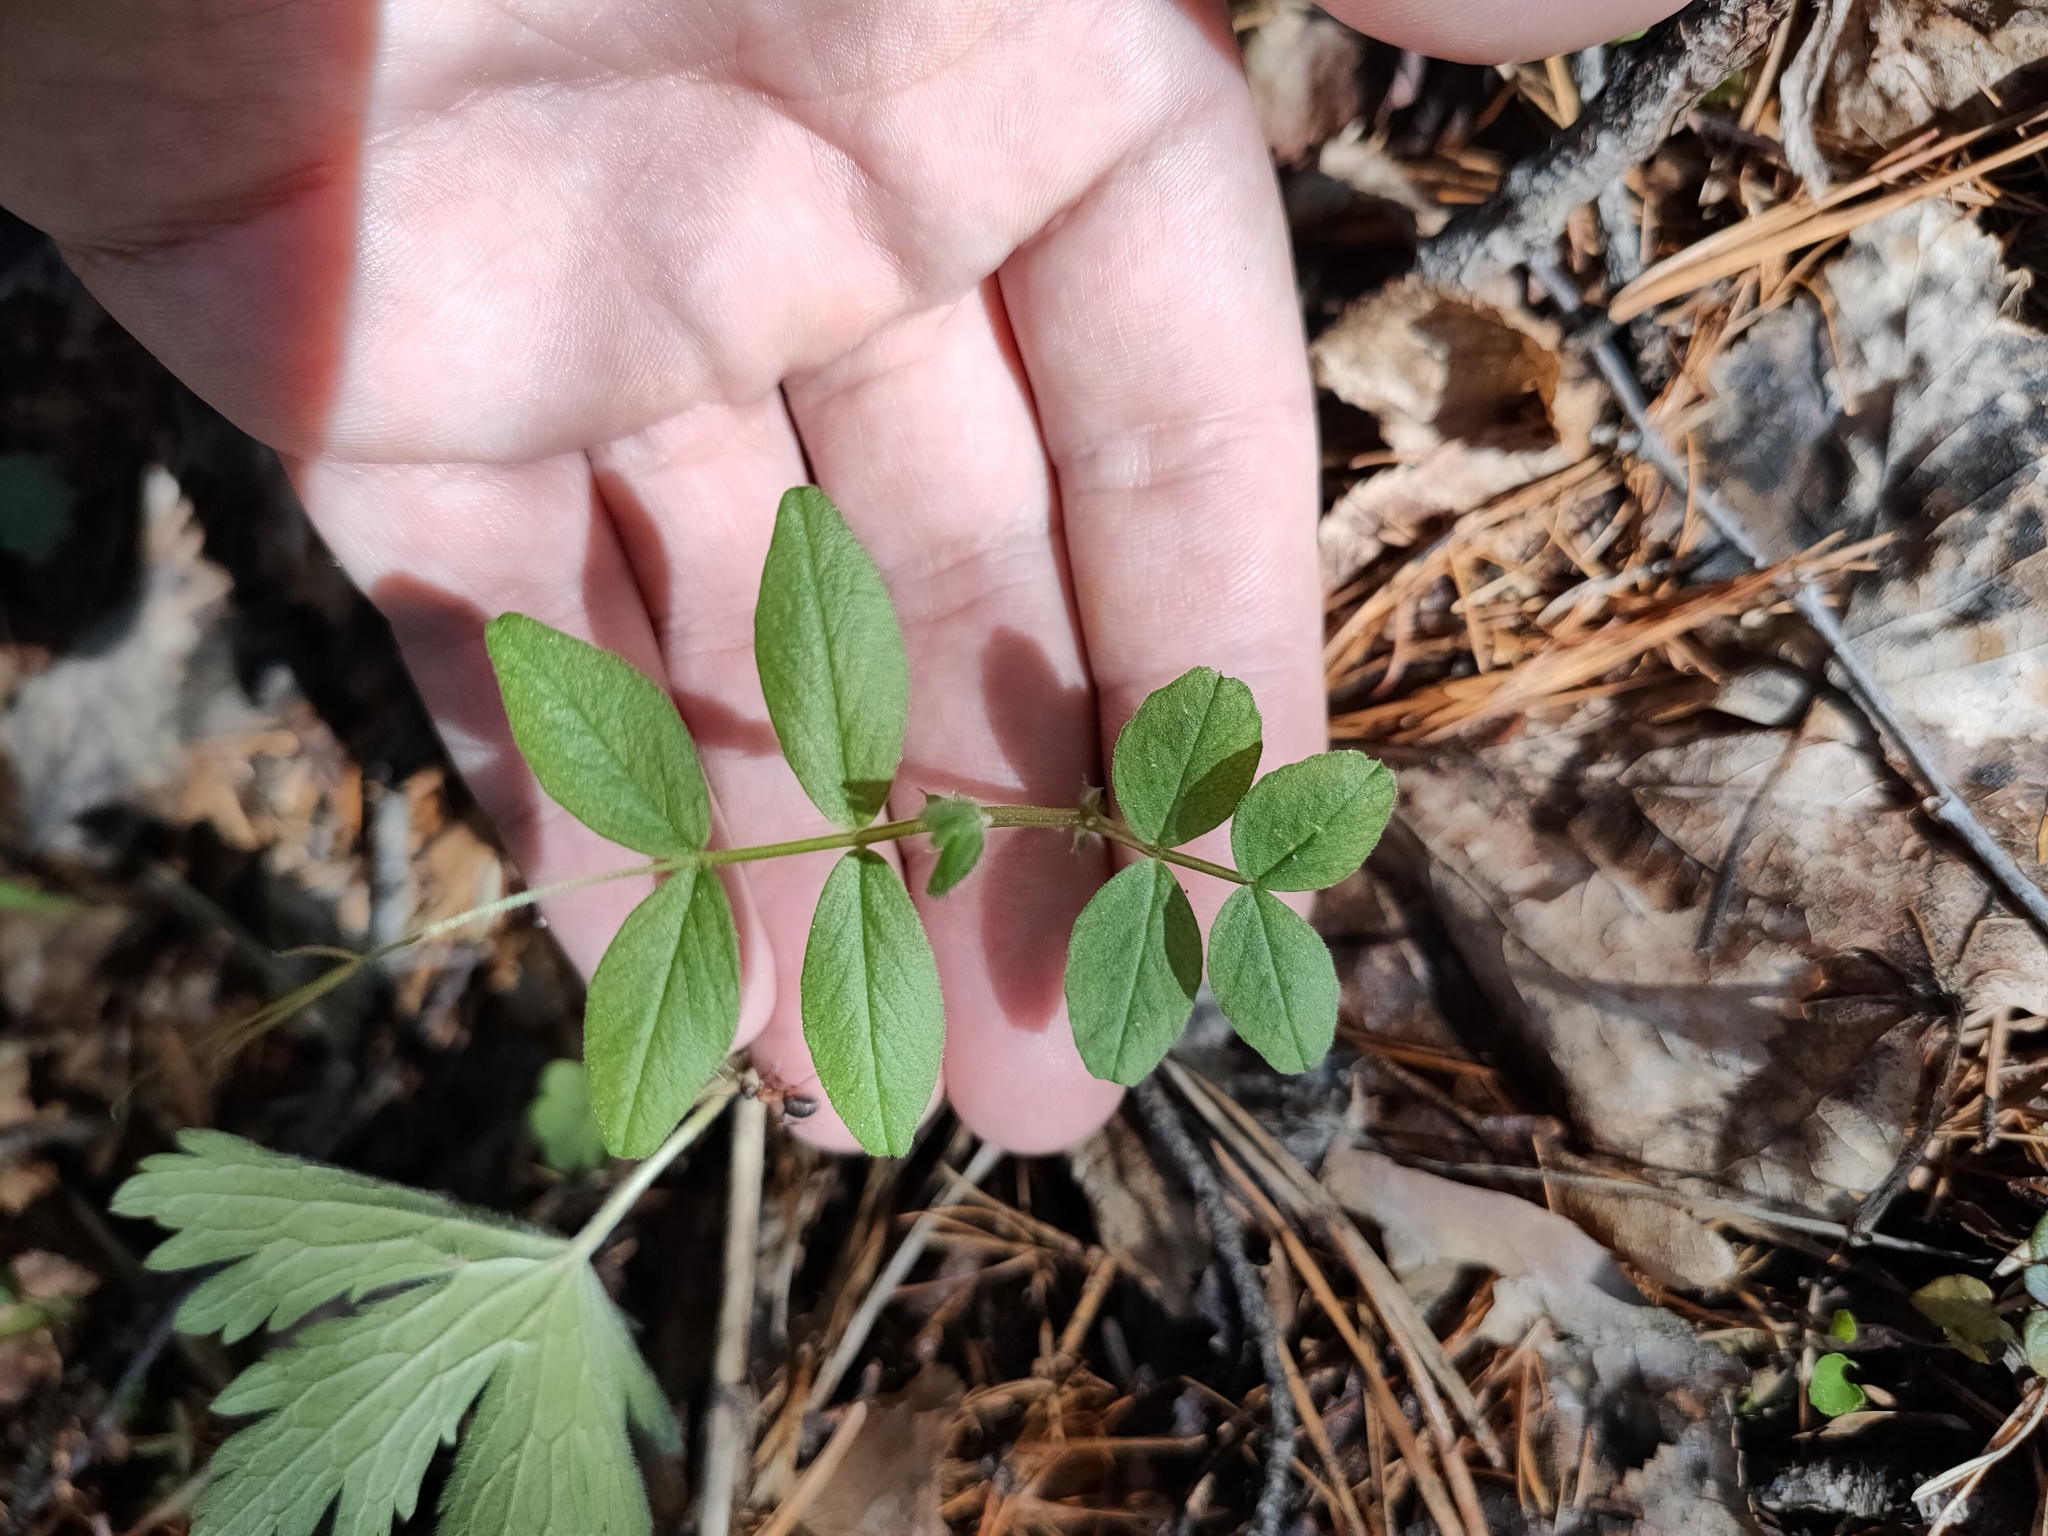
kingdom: Plantae
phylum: Tracheophyta
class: Magnoliopsida
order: Fabales
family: Fabaceae
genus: Vicia
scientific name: Vicia sepium
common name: Bush vetch
